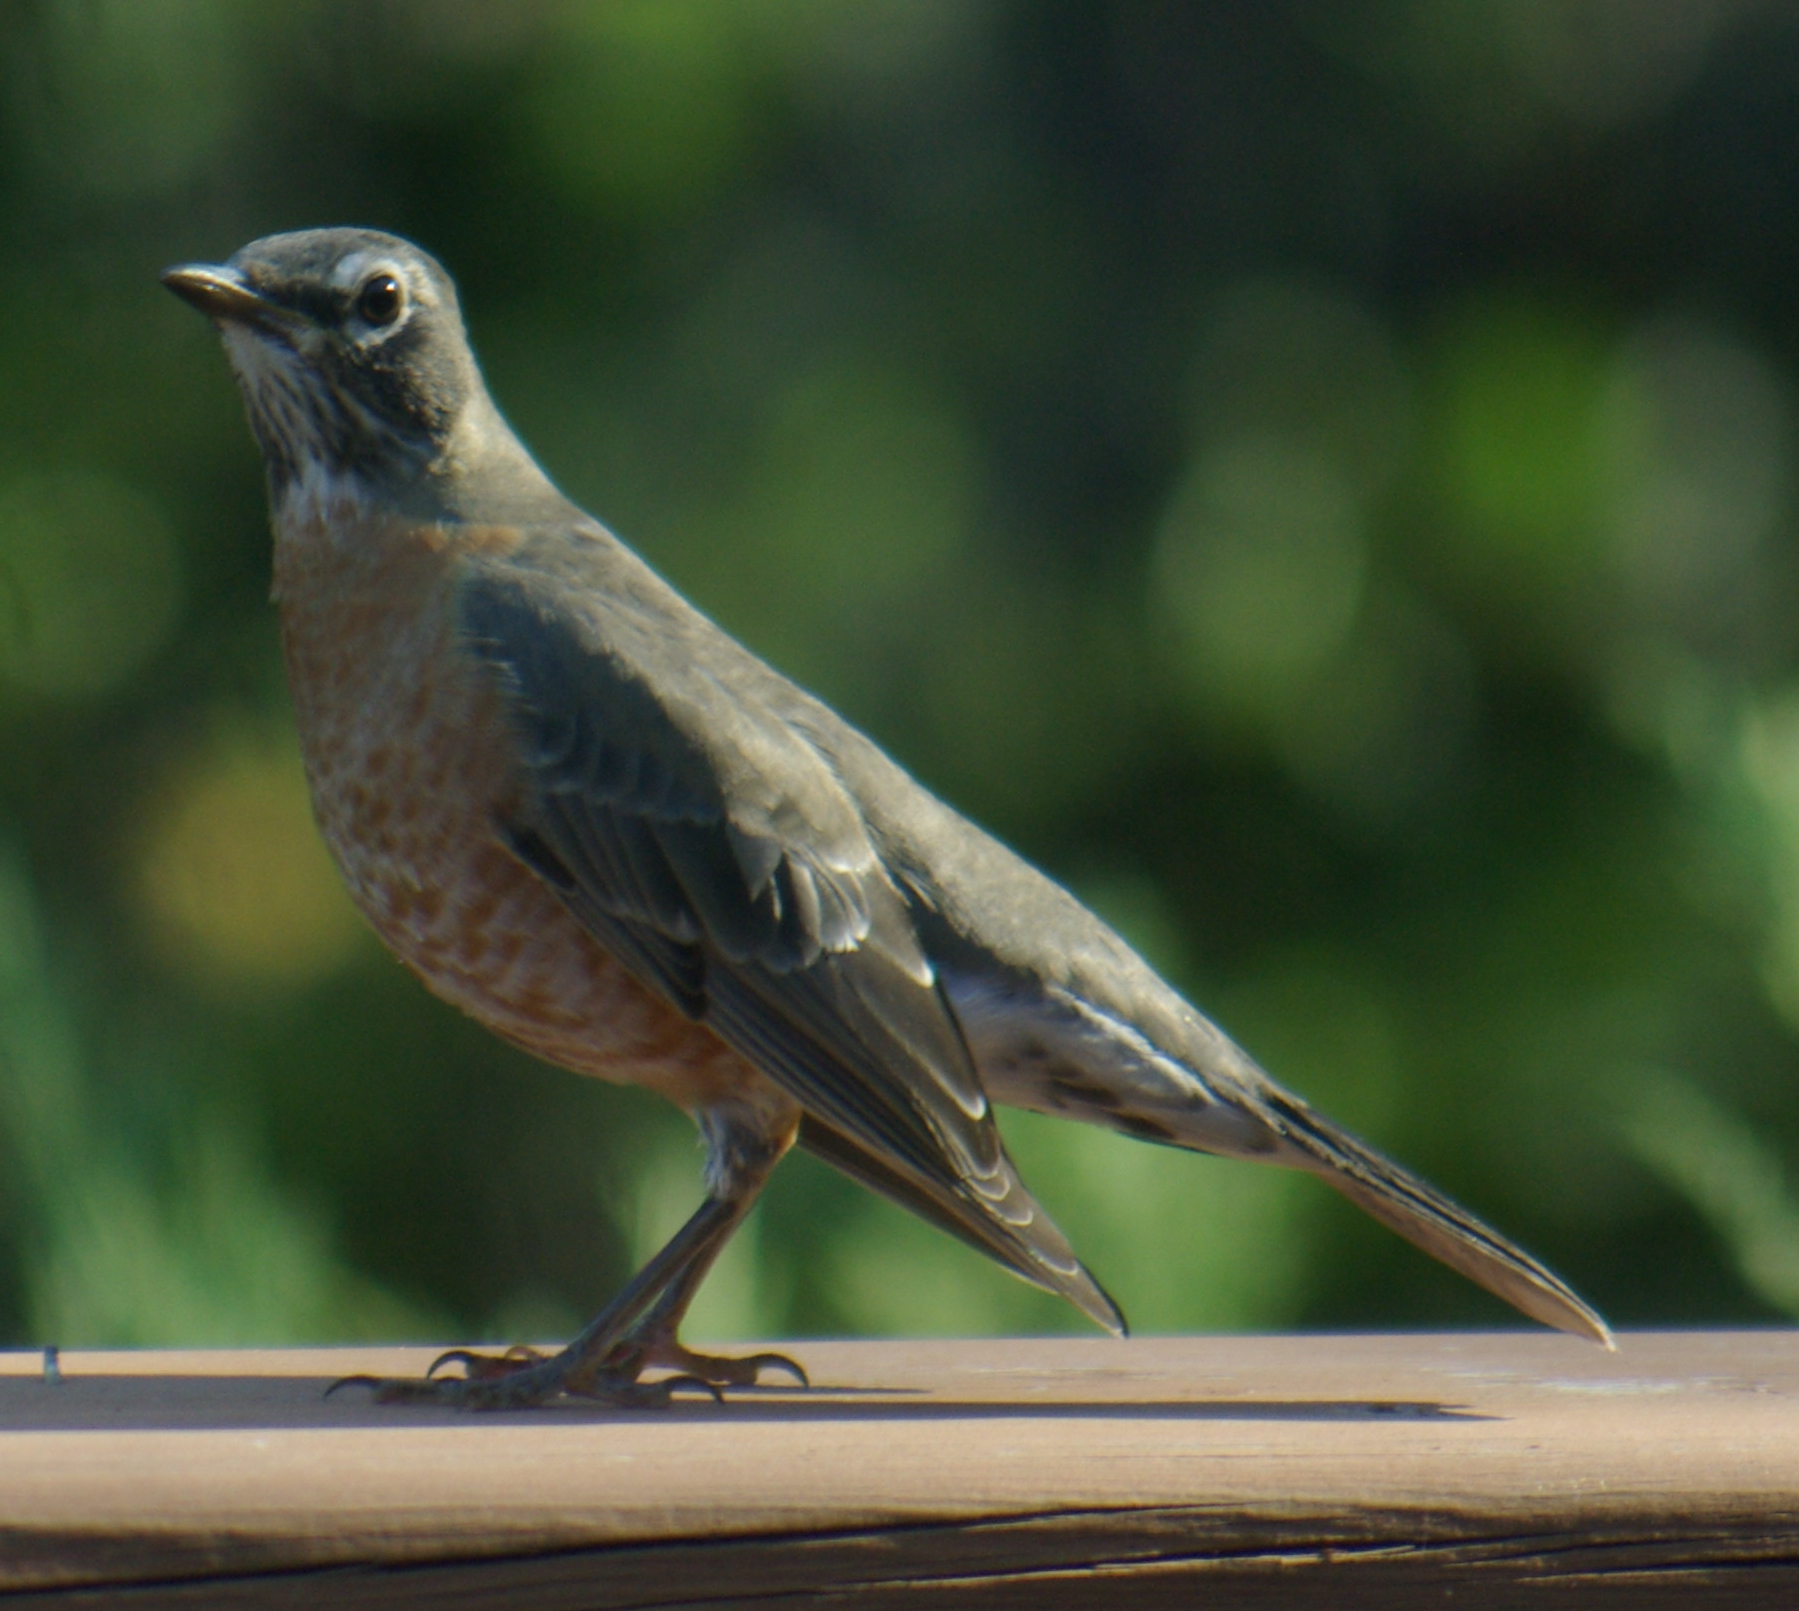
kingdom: Animalia
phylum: Chordata
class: Aves
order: Passeriformes
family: Turdidae
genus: Turdus
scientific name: Turdus migratorius
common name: American robin
